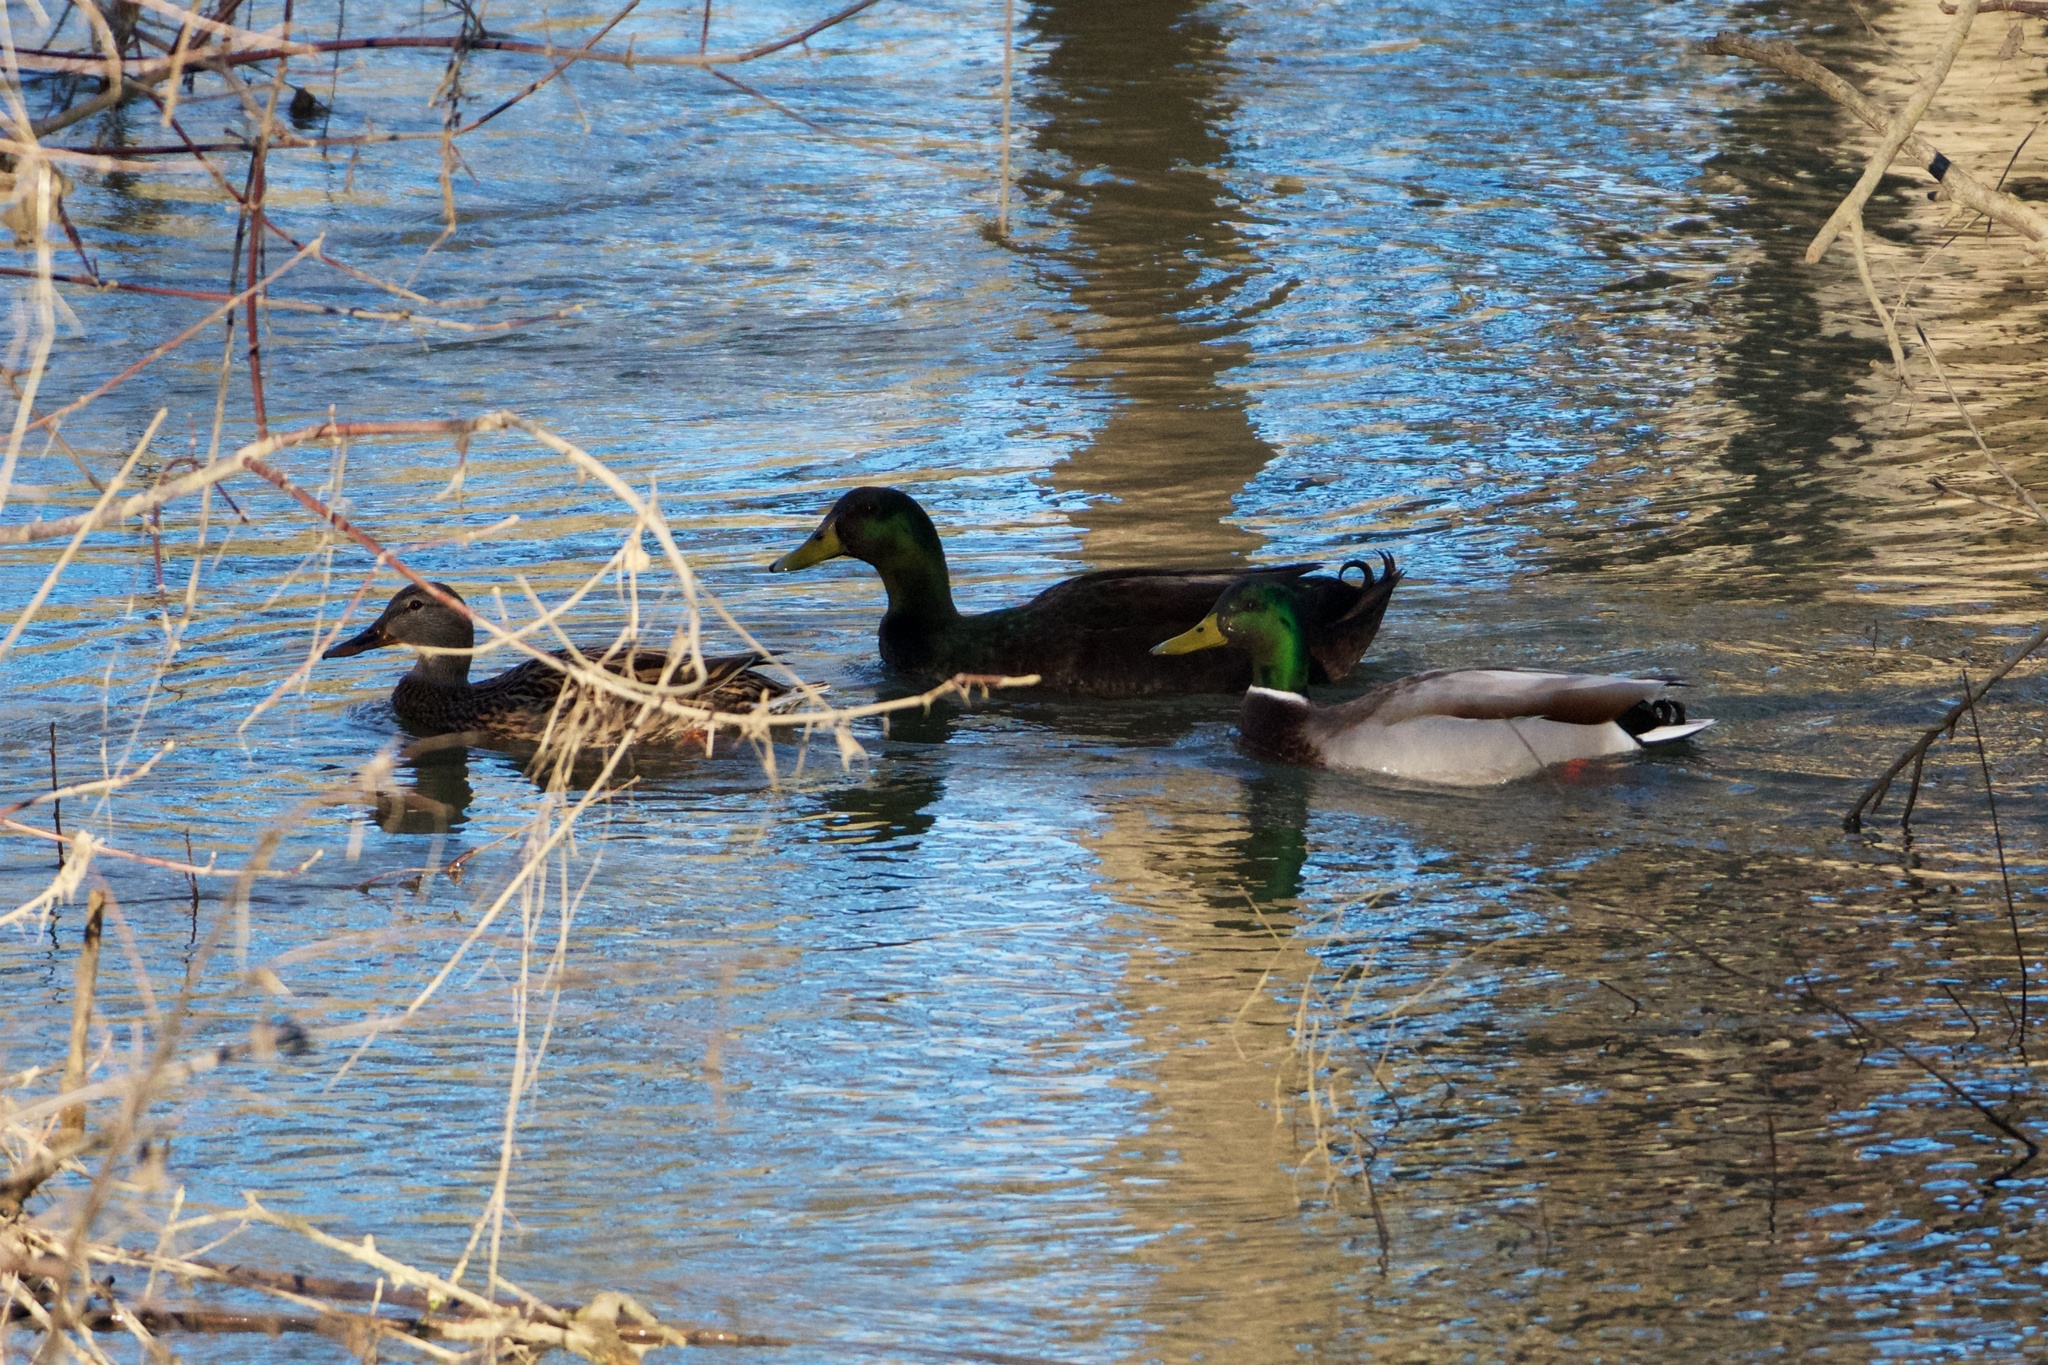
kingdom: Animalia
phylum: Chordata
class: Aves
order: Anseriformes
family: Anatidae
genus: Anas
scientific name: Anas platyrhynchos
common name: Mallard
